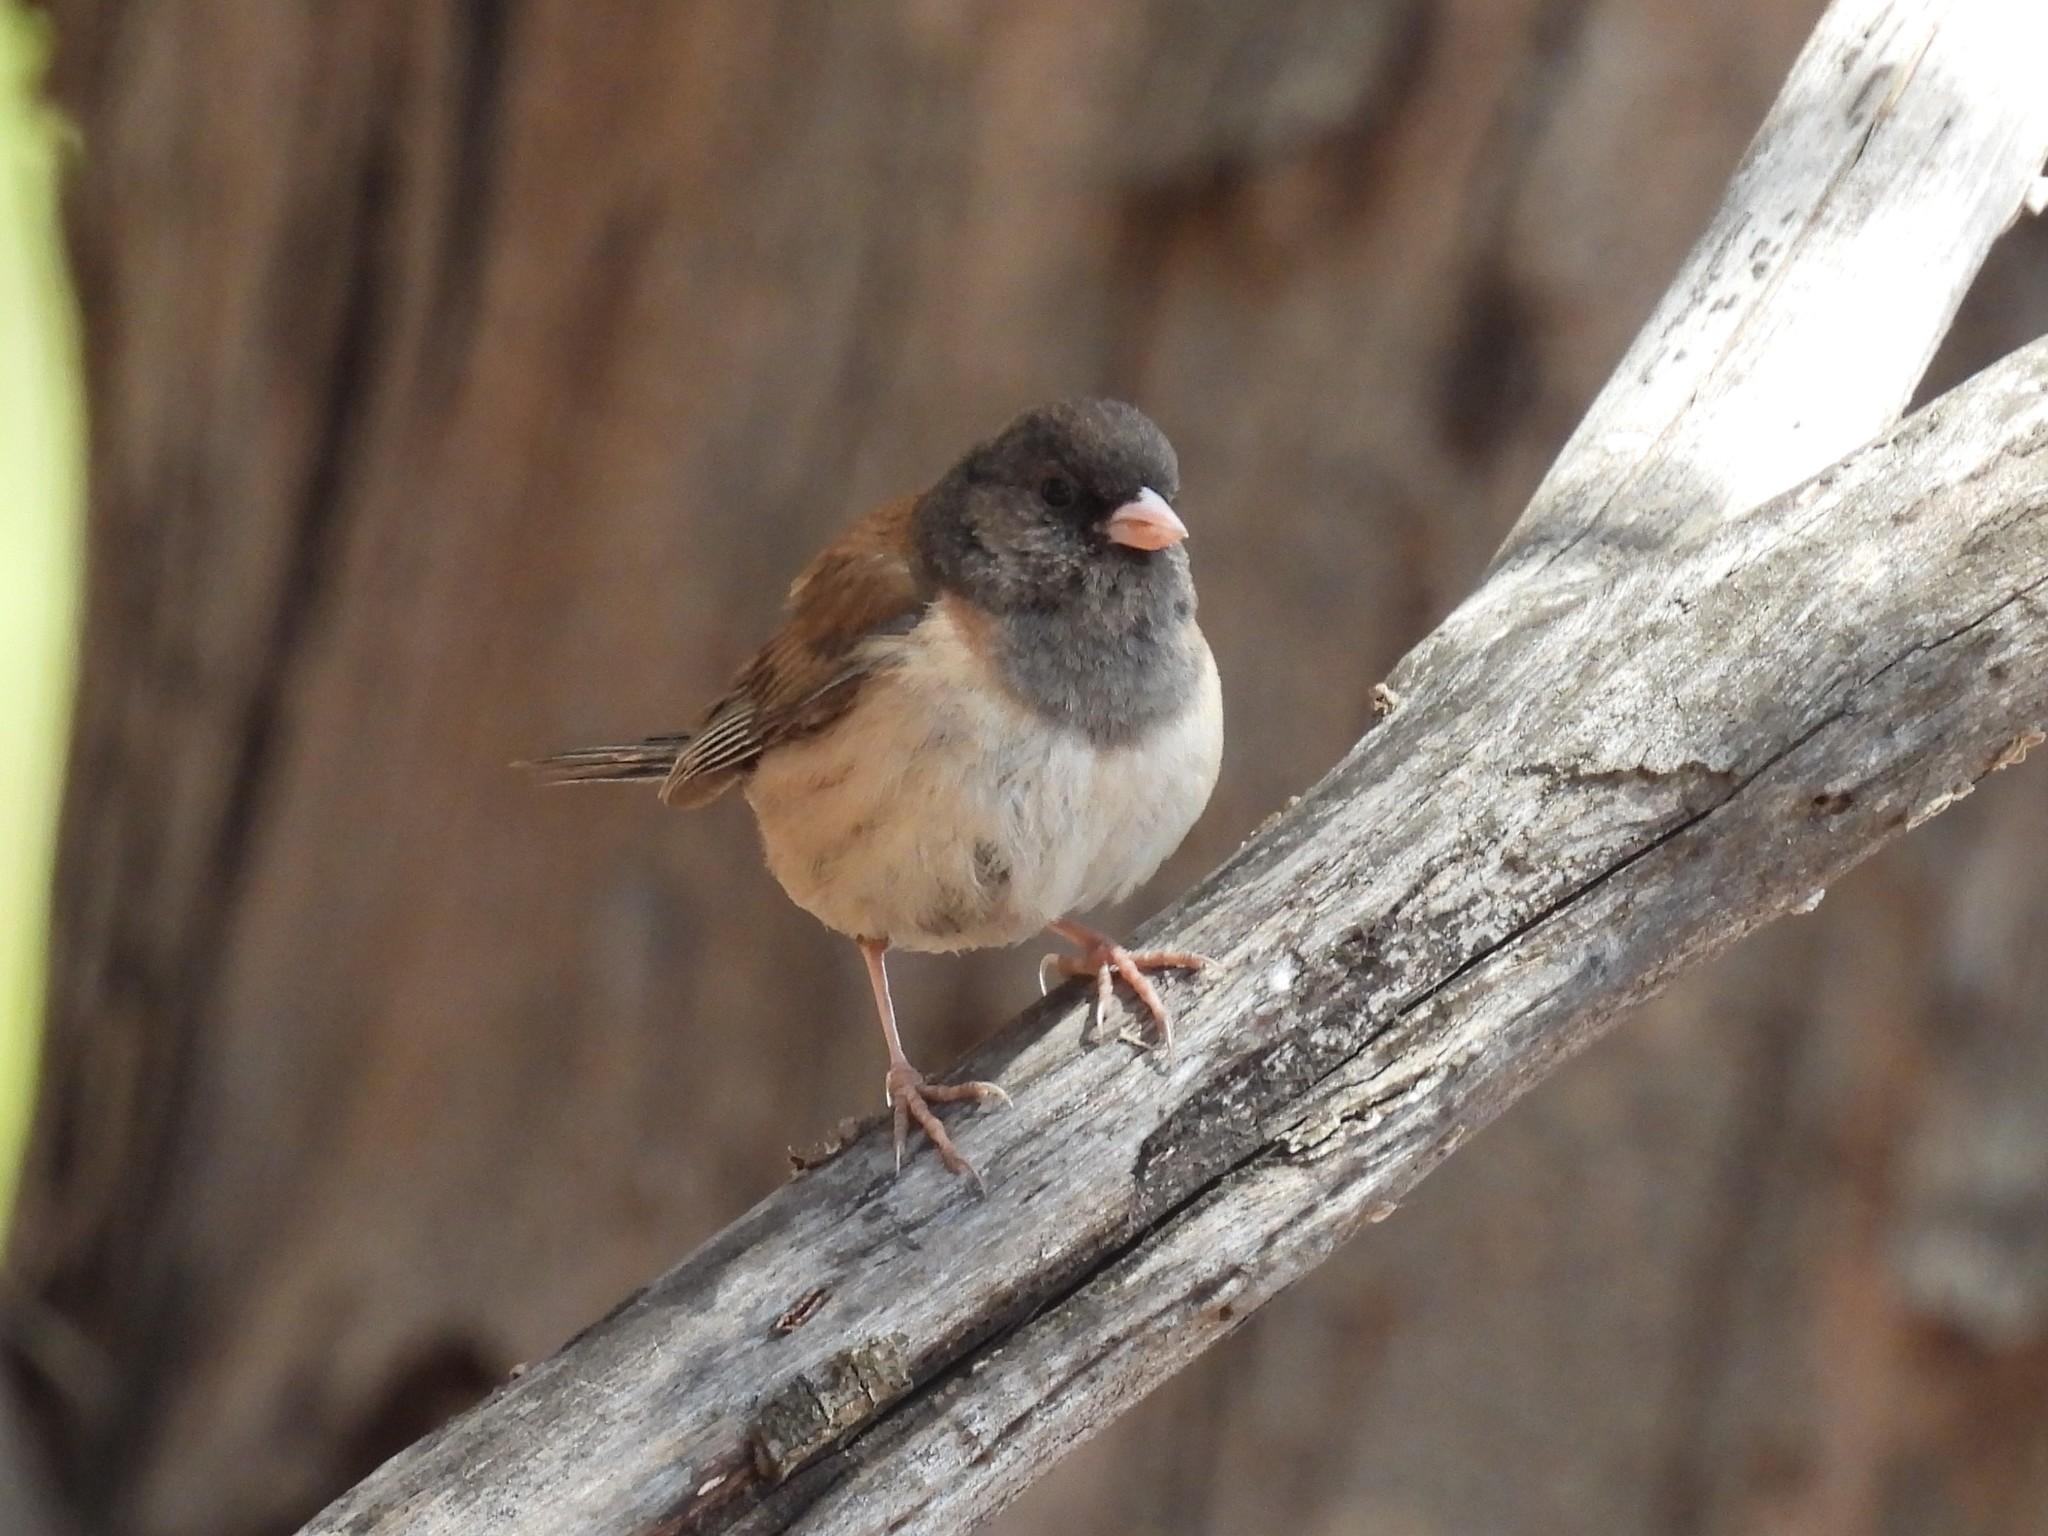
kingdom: Animalia
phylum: Chordata
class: Aves
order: Passeriformes
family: Passerellidae
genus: Junco
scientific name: Junco hyemalis
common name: Dark-eyed junco
